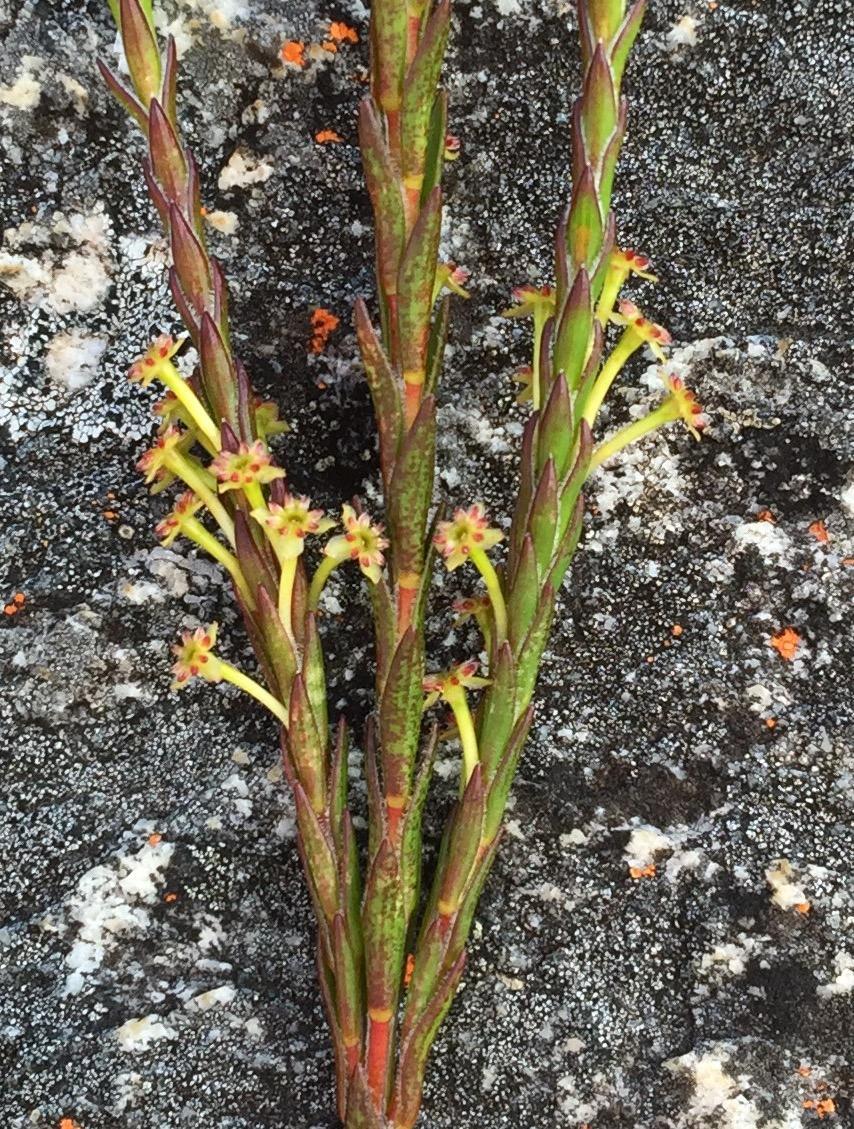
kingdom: Plantae
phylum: Tracheophyta
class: Magnoliopsida
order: Malvales
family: Thymelaeaceae
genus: Struthiola
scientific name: Struthiola eckloniana
